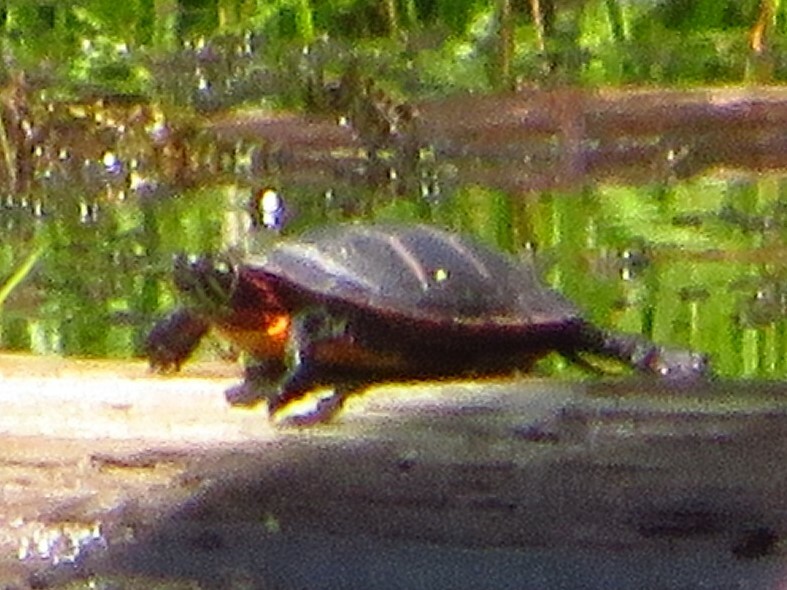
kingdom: Animalia
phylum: Chordata
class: Testudines
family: Emydidae
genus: Chrysemys
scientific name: Chrysemys picta
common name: Painted turtle
